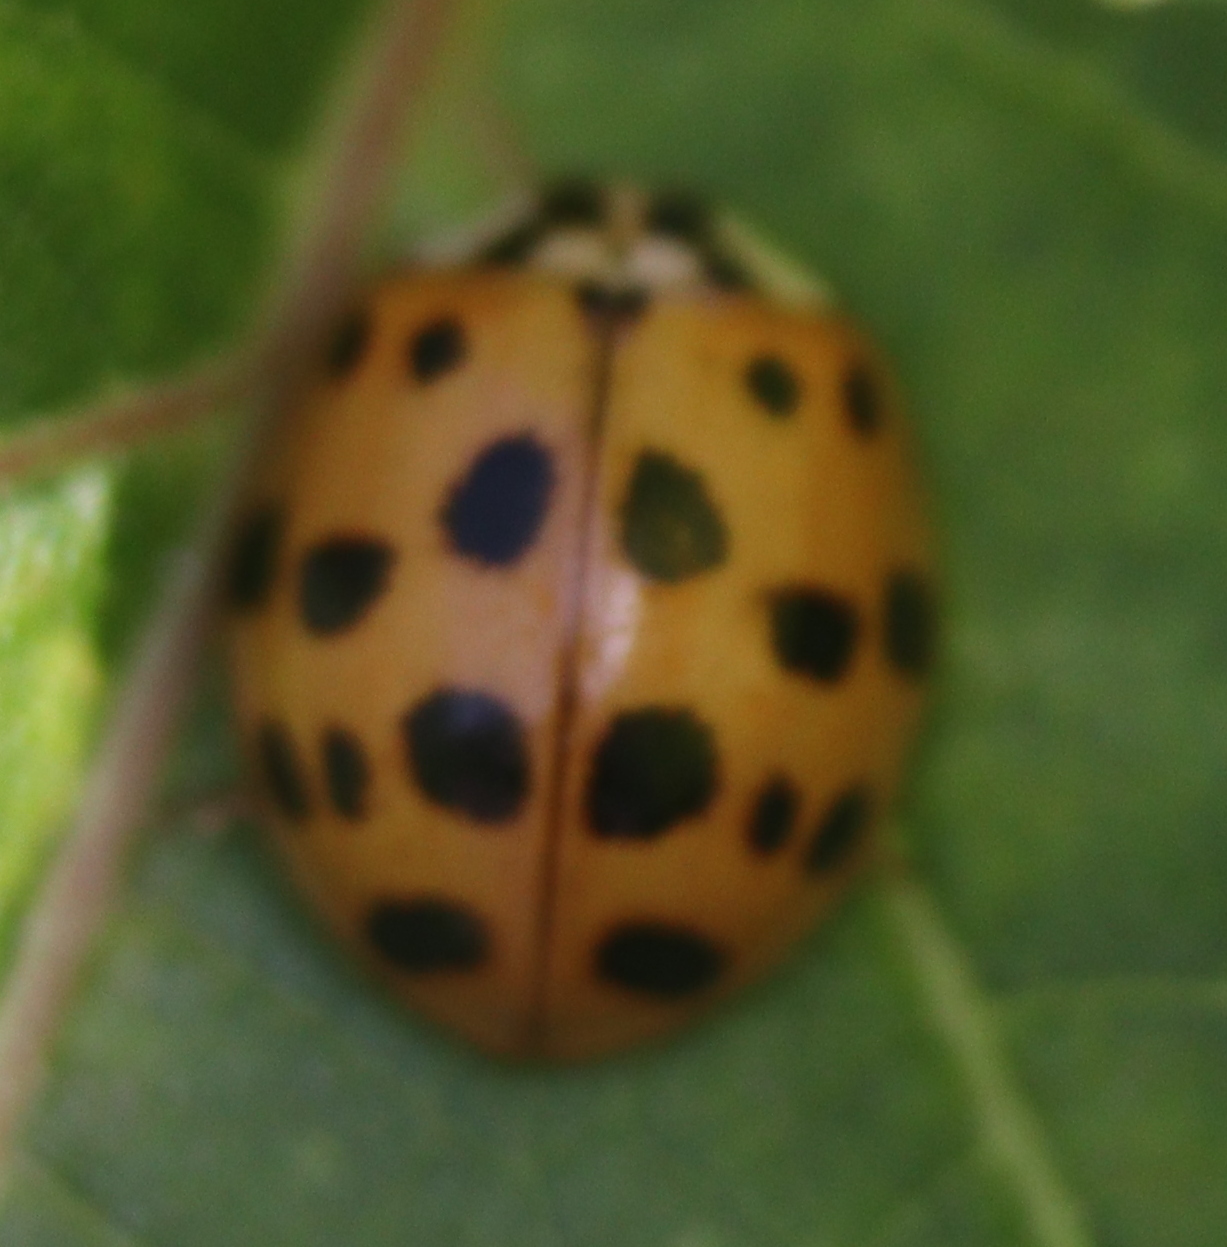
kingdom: Animalia
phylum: Arthropoda
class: Insecta
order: Coleoptera
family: Coccinellidae
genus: Harmonia
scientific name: Harmonia axyridis
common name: Harlequin ladybird
